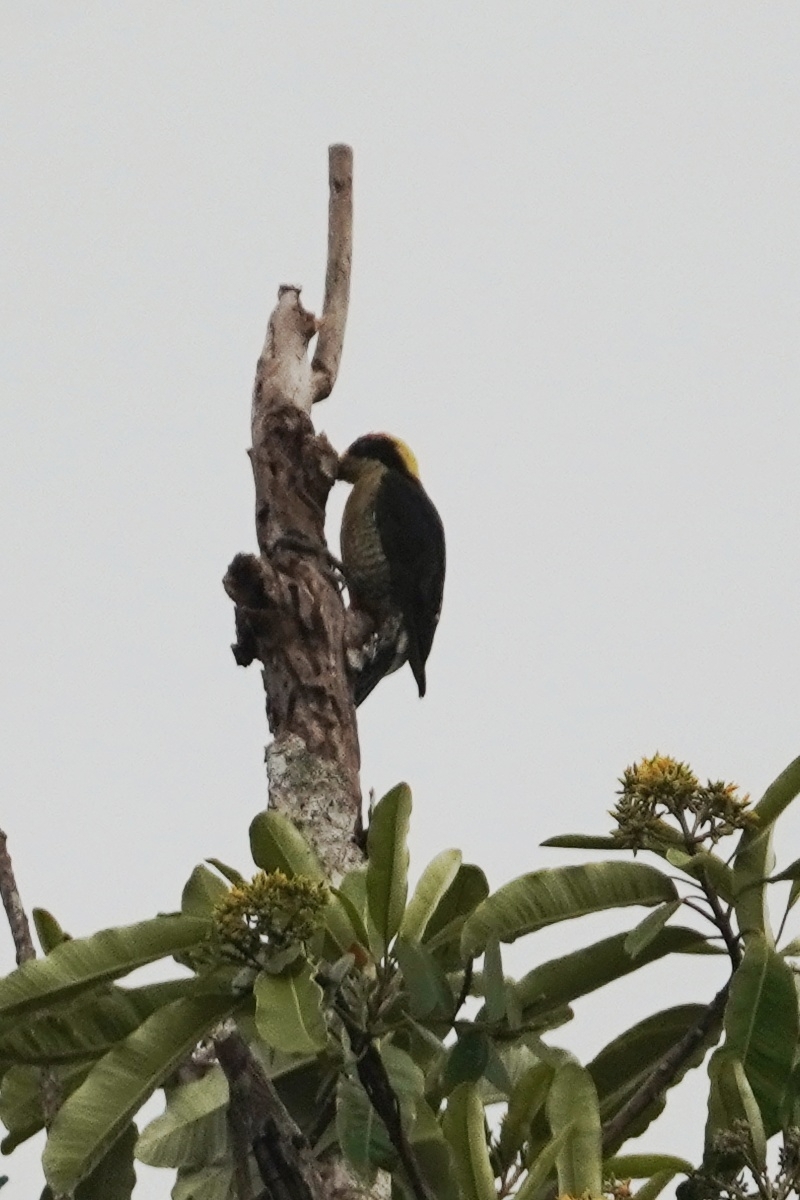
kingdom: Animalia
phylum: Chordata
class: Aves
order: Piciformes
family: Picidae
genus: Melanerpes
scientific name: Melanerpes chrysauchen
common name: Golden-naped woodpecker
